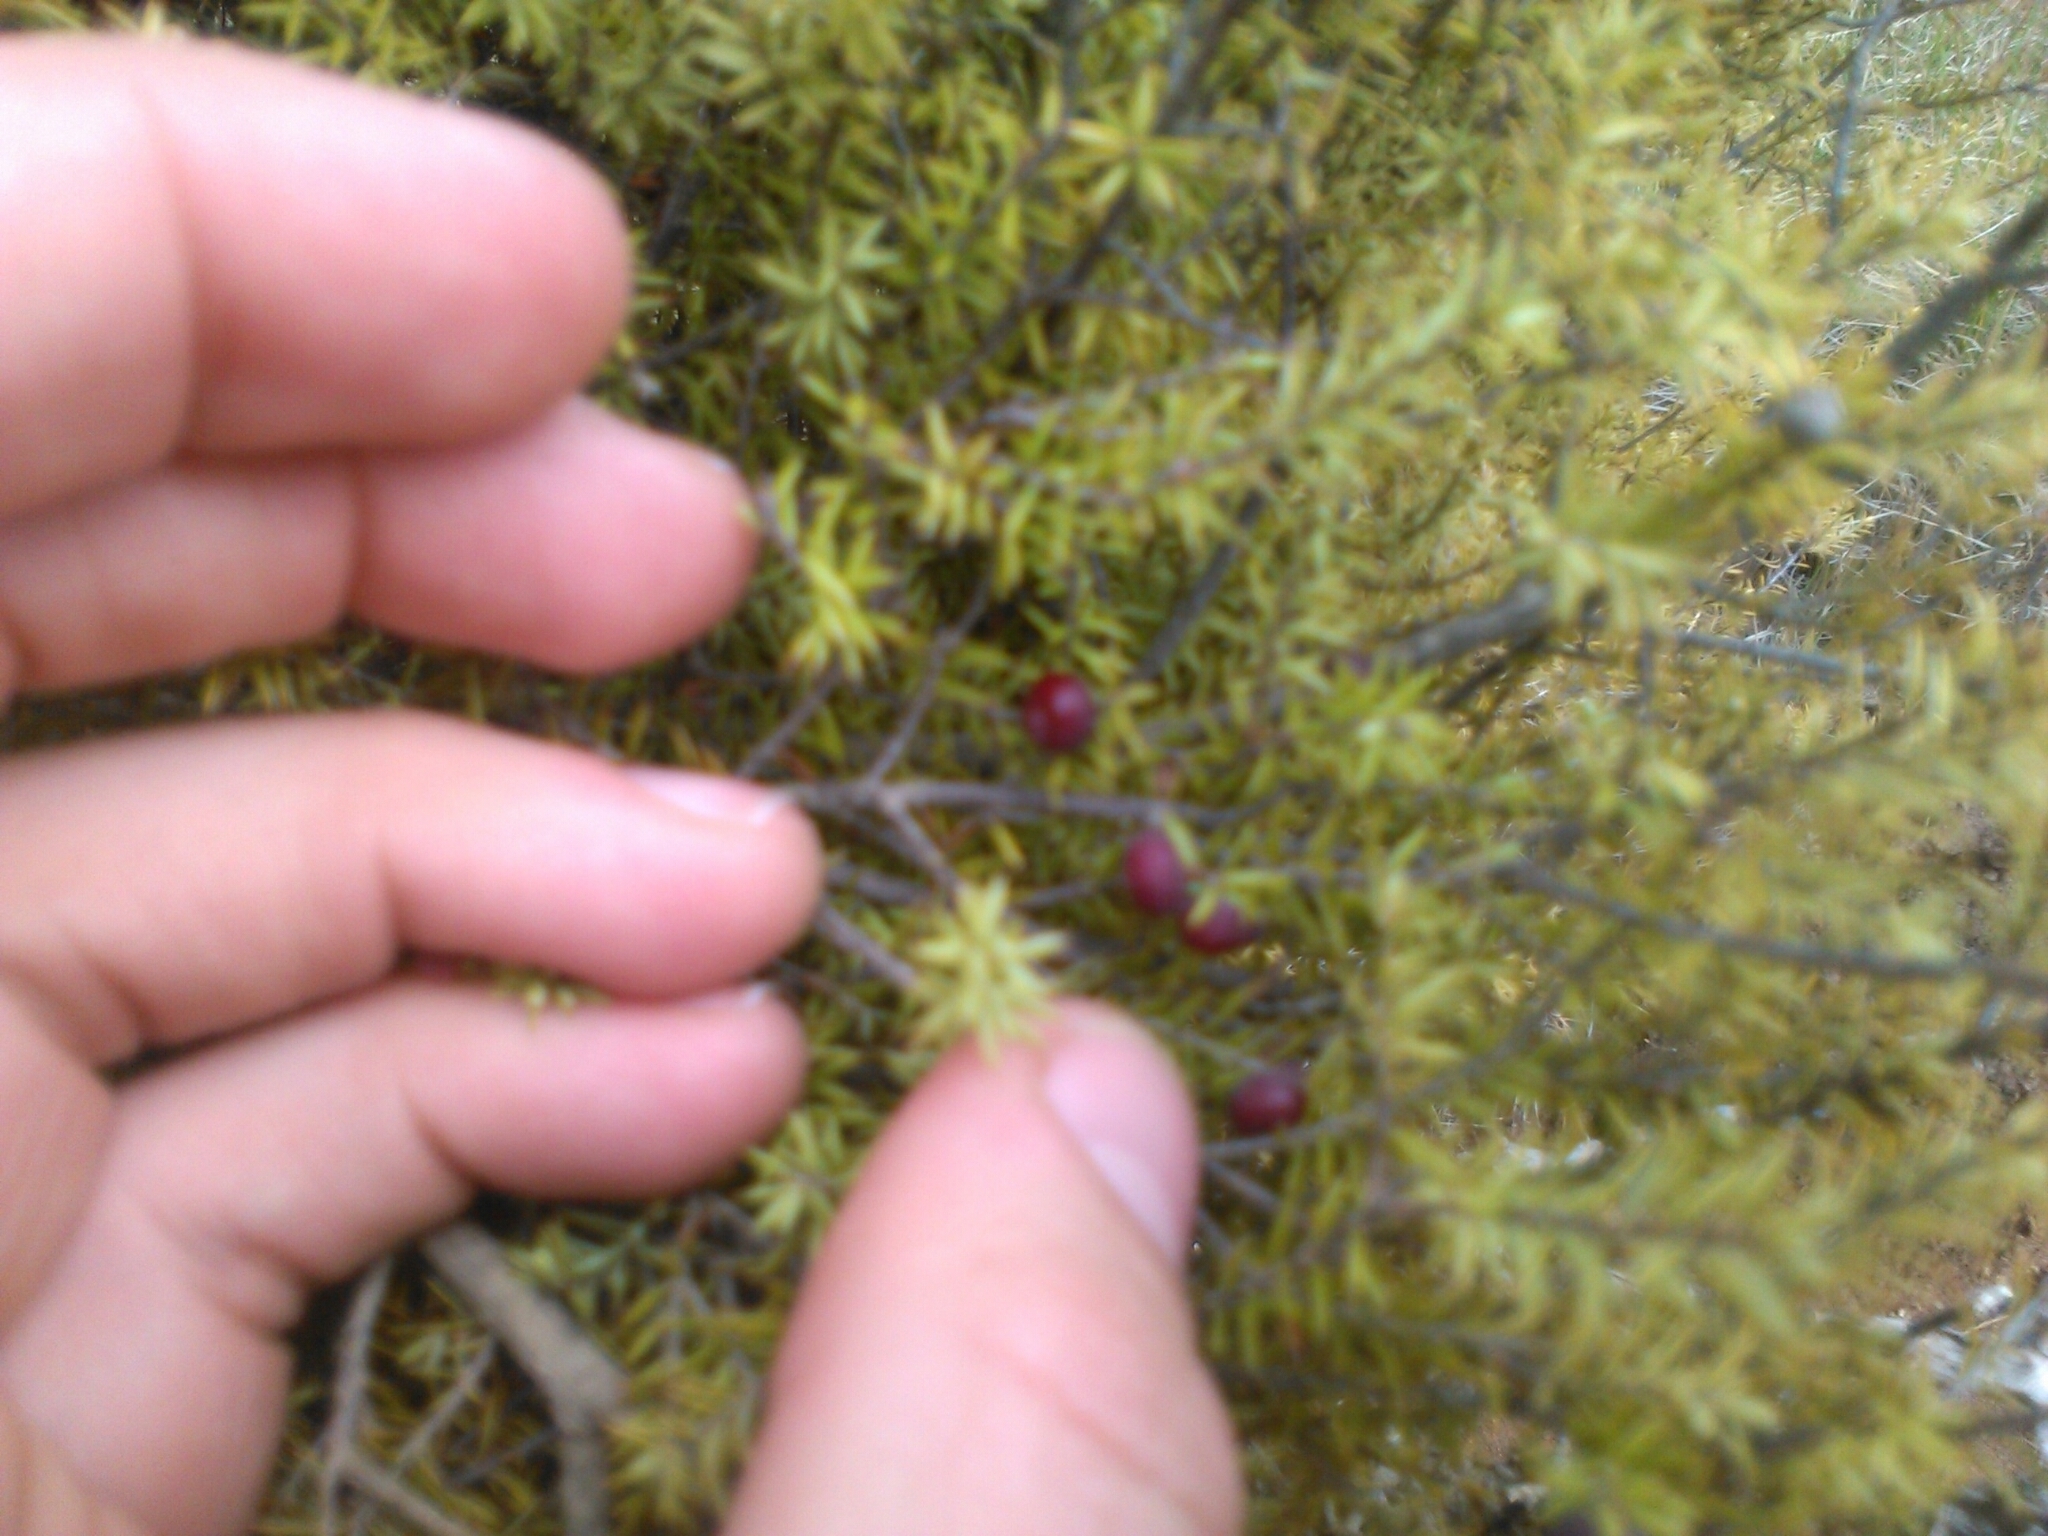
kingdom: Plantae
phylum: Tracheophyta
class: Magnoliopsida
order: Ericales
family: Ericaceae
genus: Leptecophylla
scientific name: Leptecophylla juniperina
